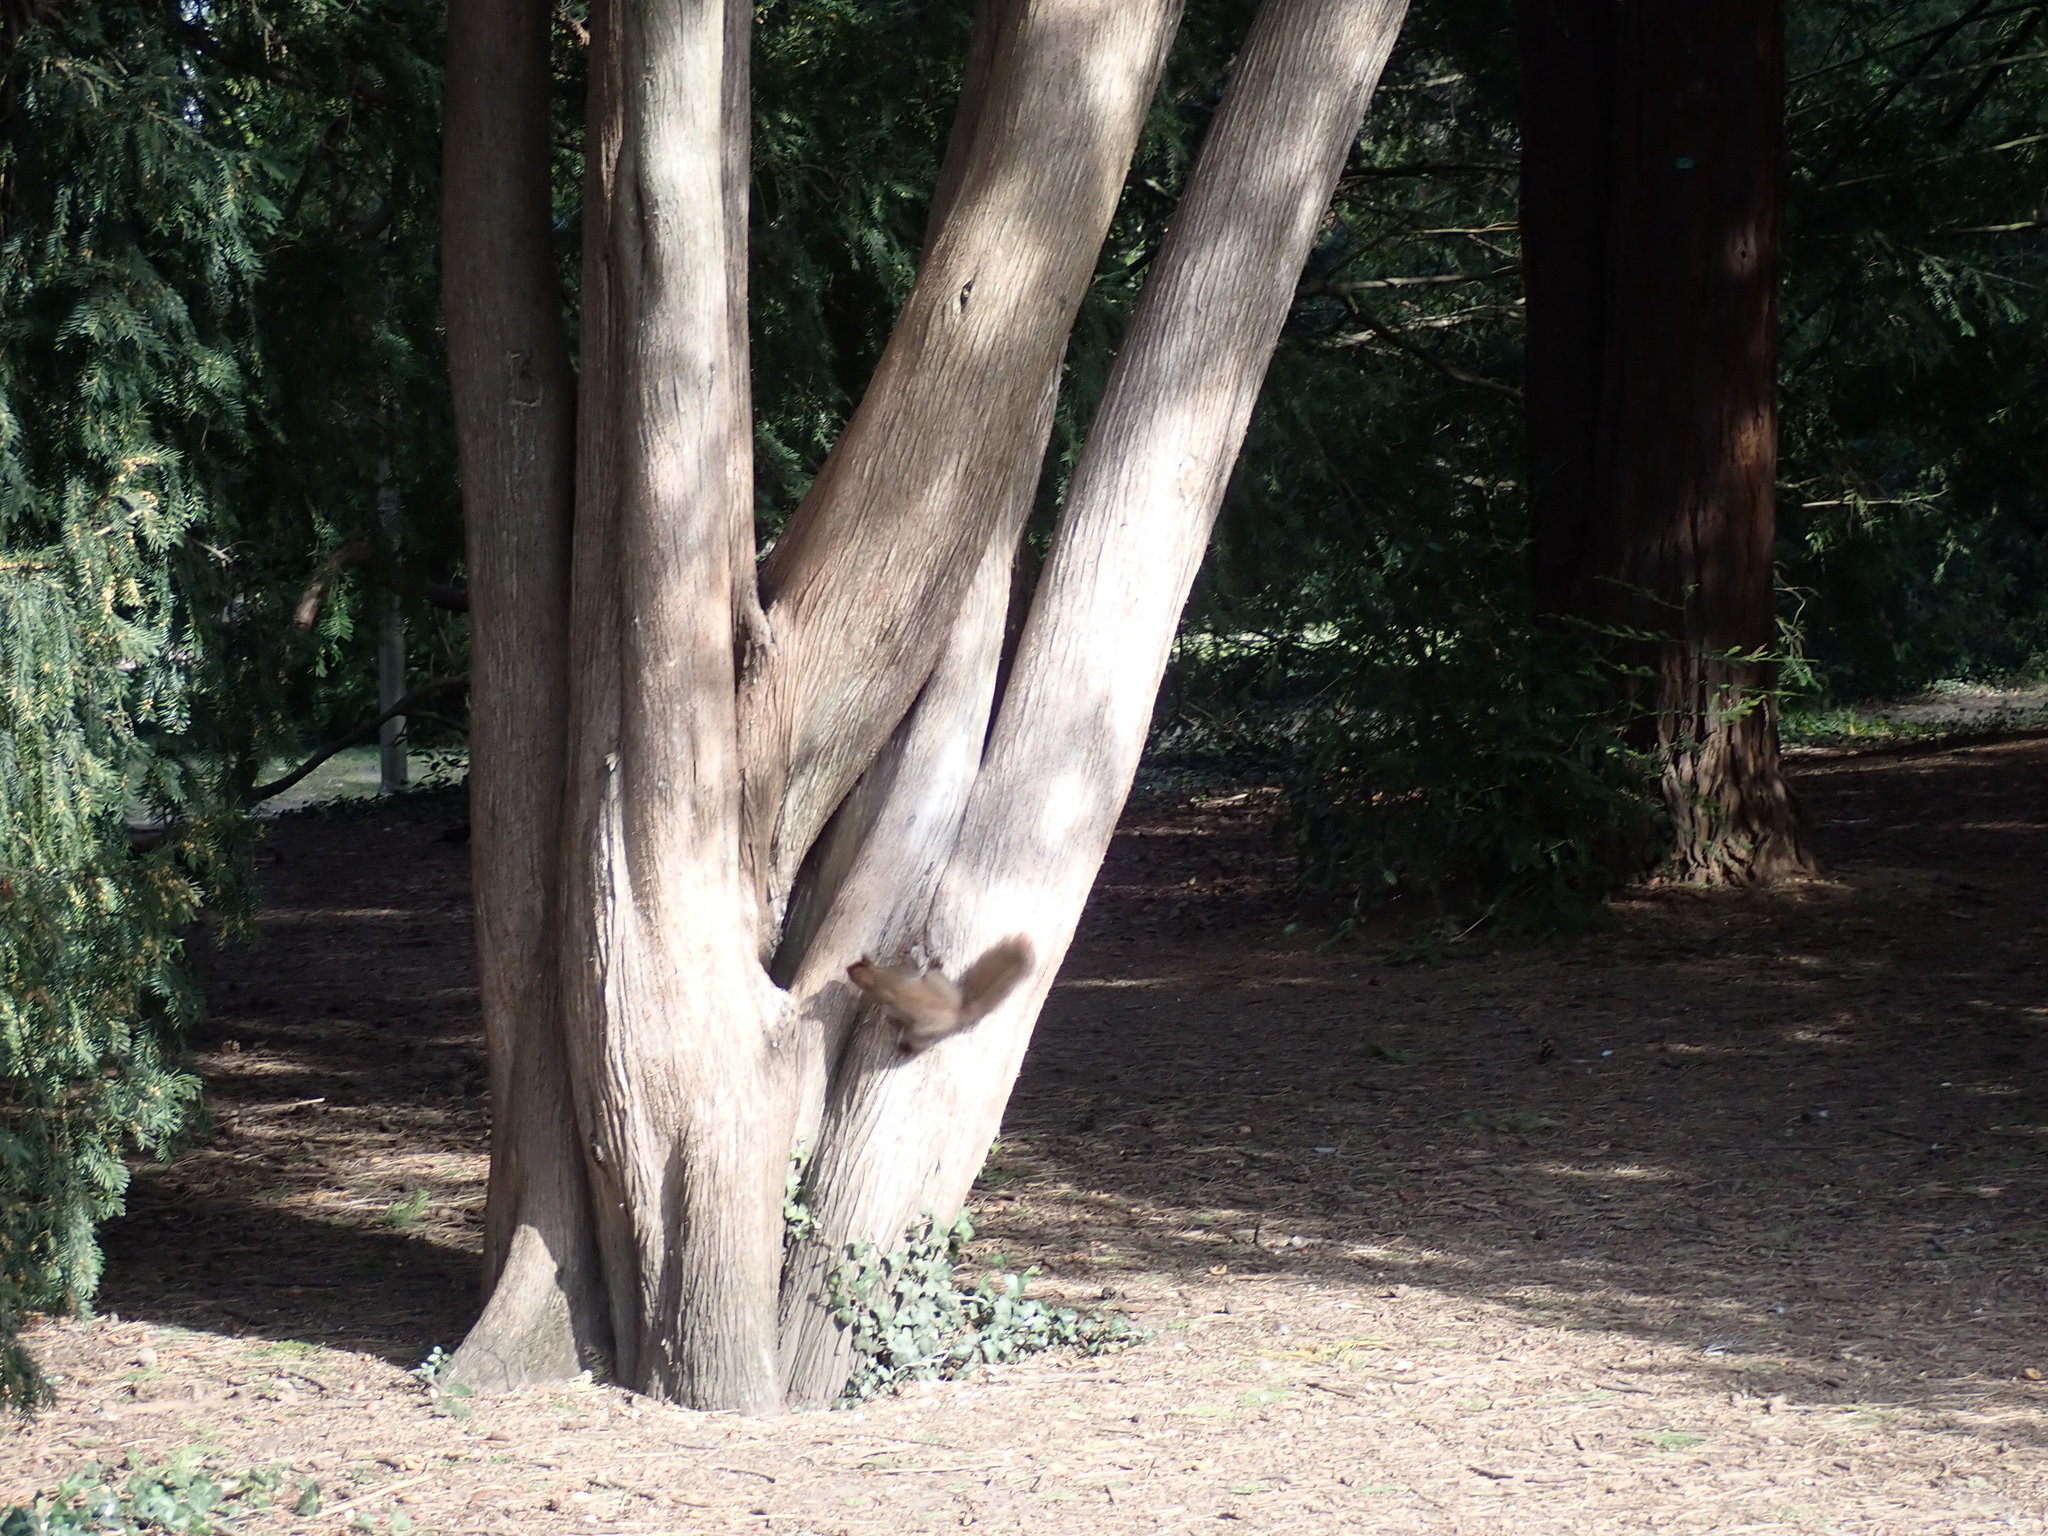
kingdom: Animalia
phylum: Chordata
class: Mammalia
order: Rodentia
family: Sciuridae
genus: Sciurus
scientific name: Sciurus vulgaris
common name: Eurasian red squirrel
